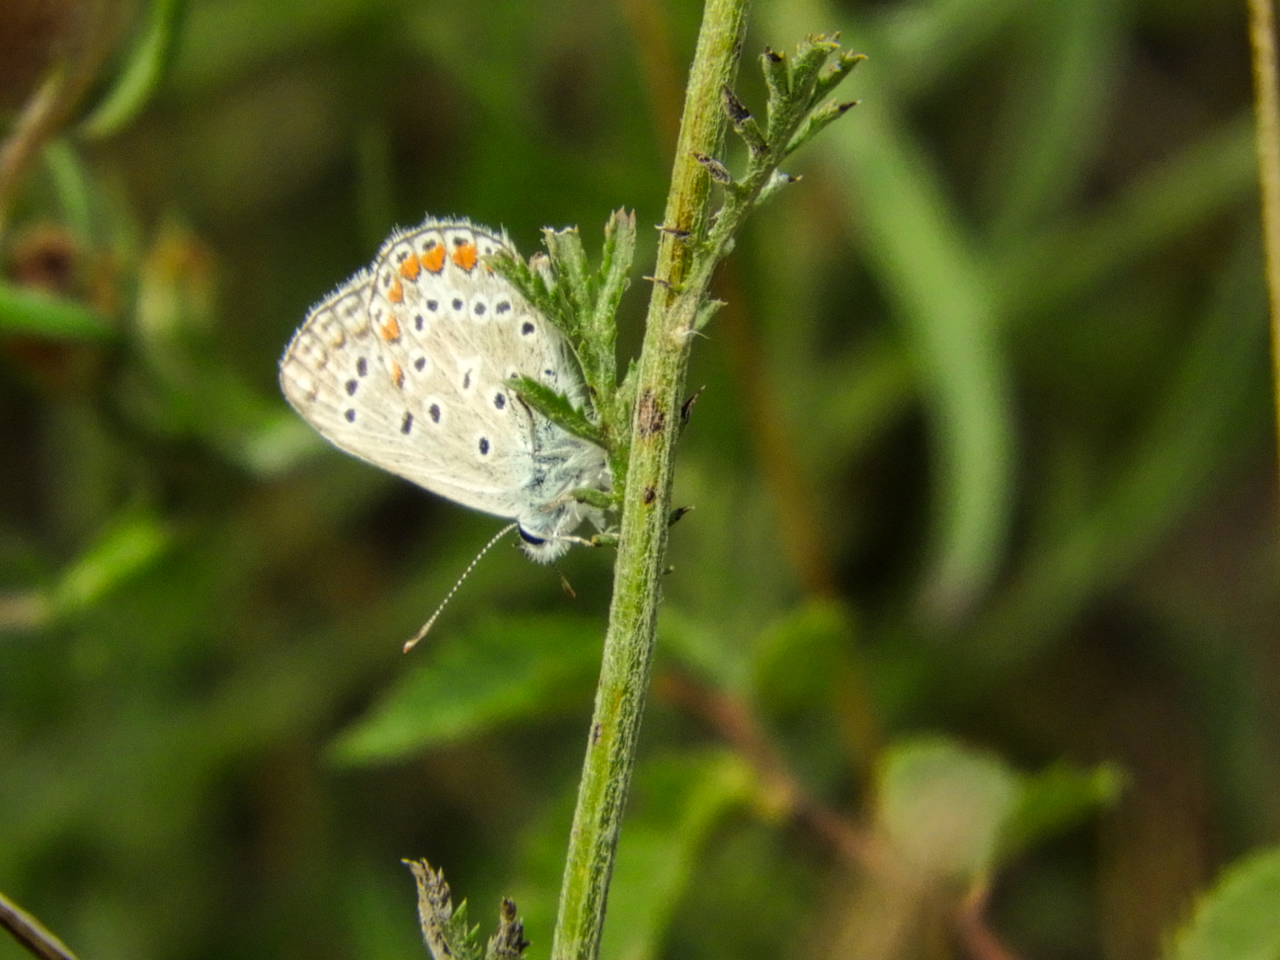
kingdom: Animalia
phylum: Arthropoda
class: Insecta
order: Lepidoptera
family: Lycaenidae
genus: Polyommatus
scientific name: Polyommatus icarus
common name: Common blue
